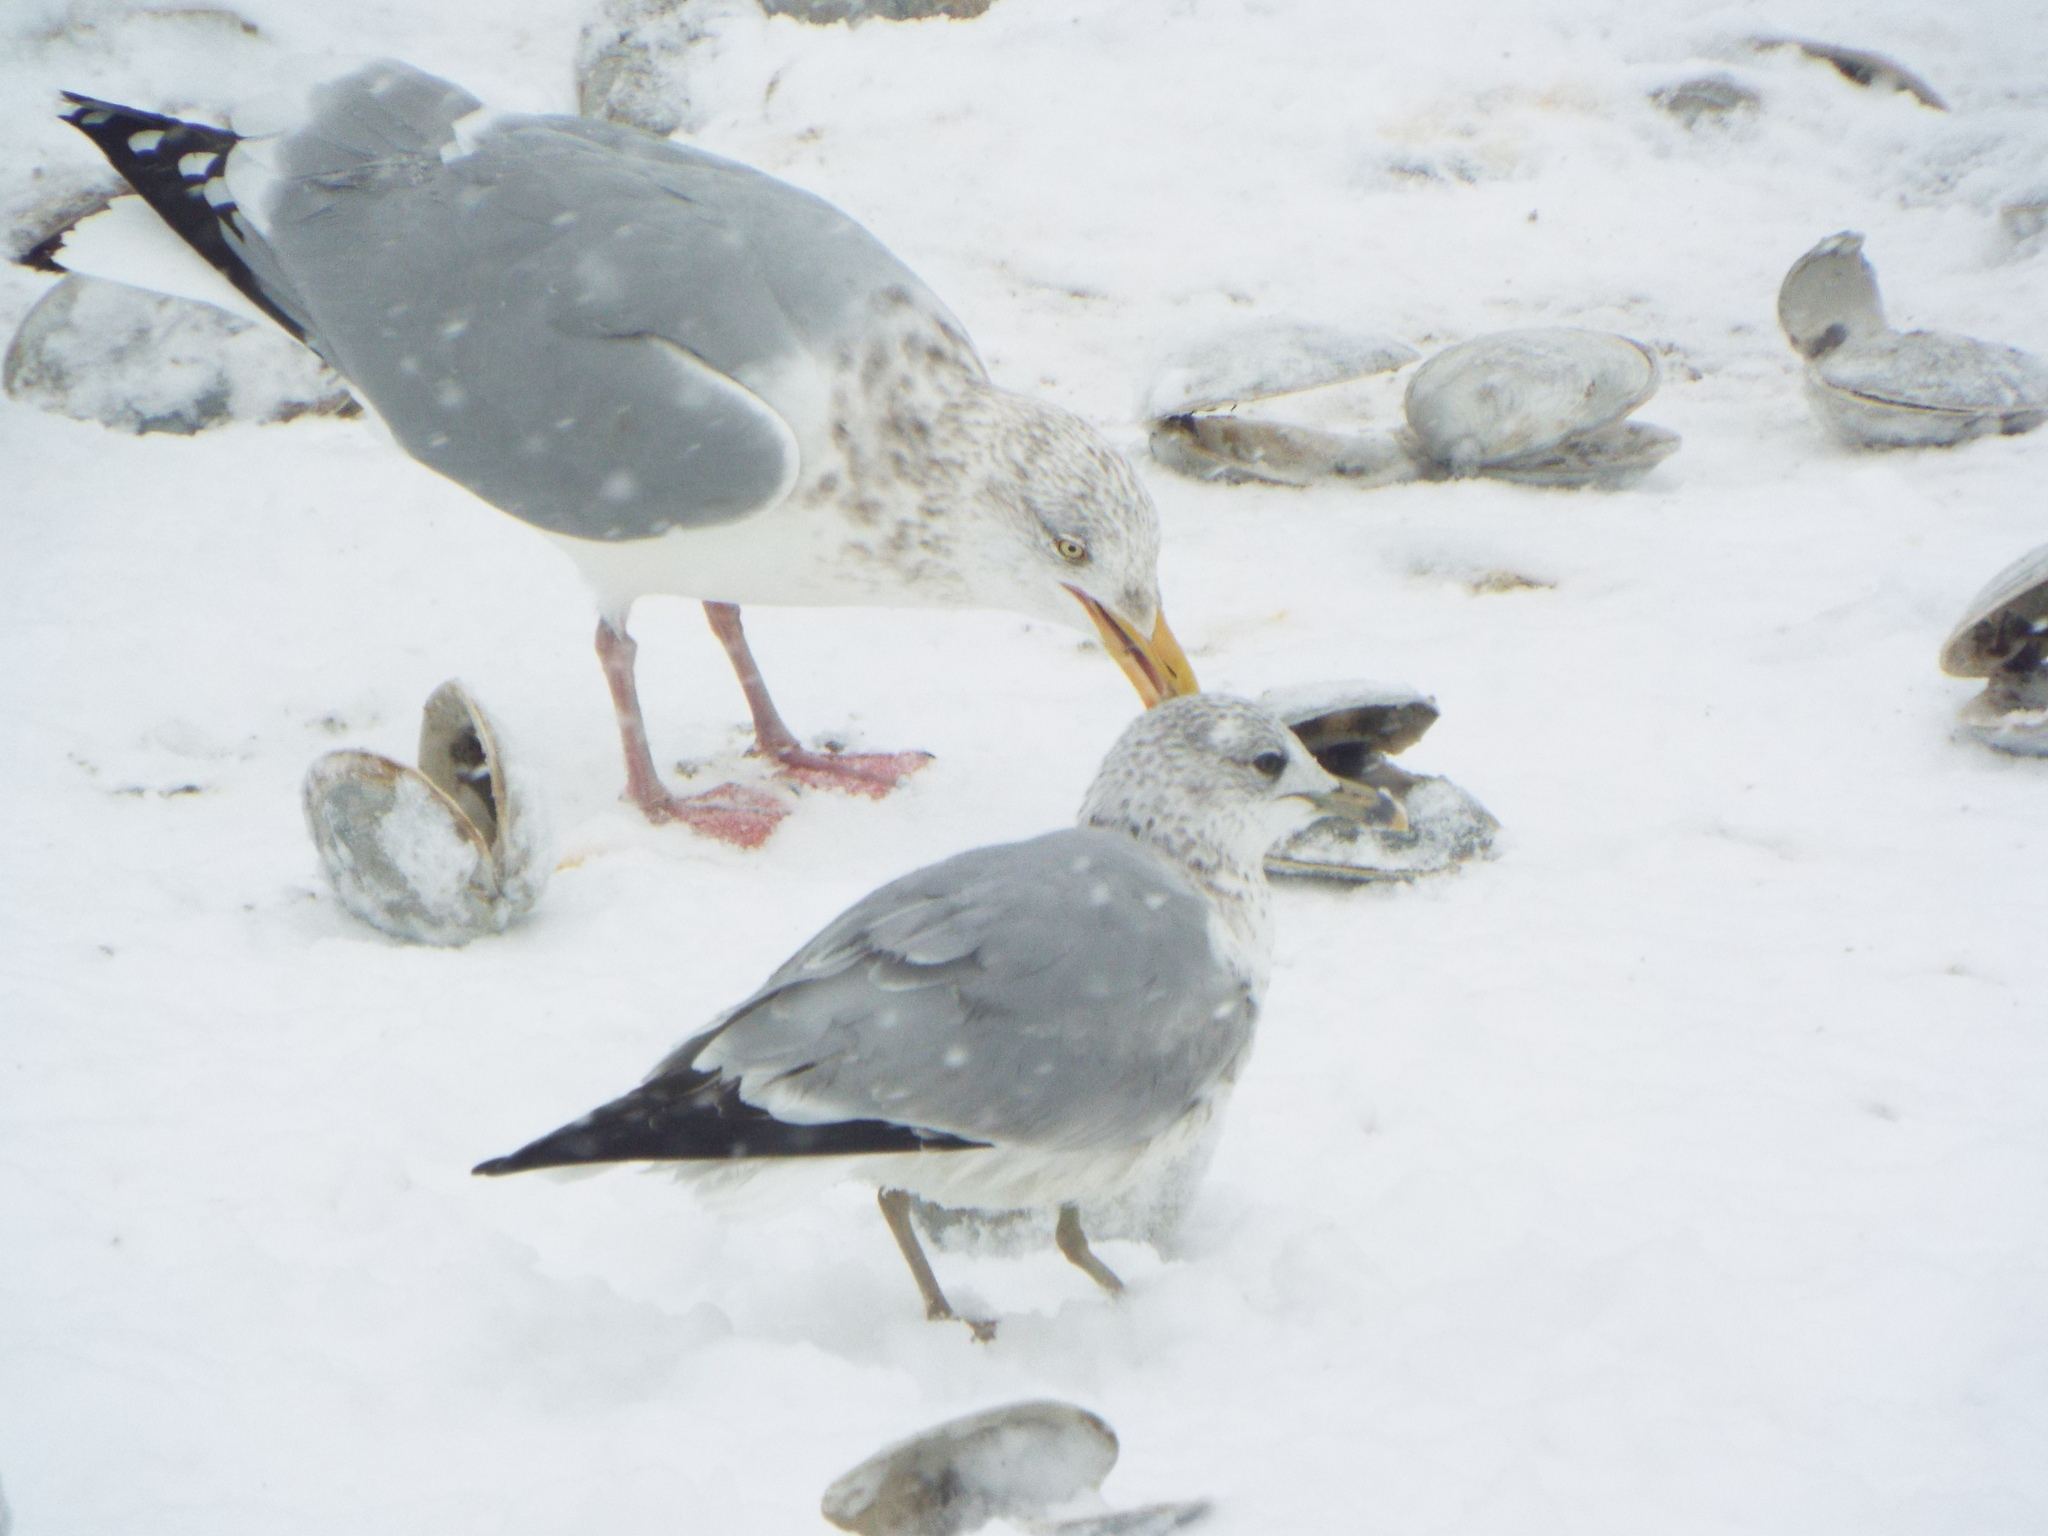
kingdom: Animalia
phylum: Chordata
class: Aves
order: Charadriiformes
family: Laridae
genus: Larus
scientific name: Larus delawarensis
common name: Ring-billed gull
